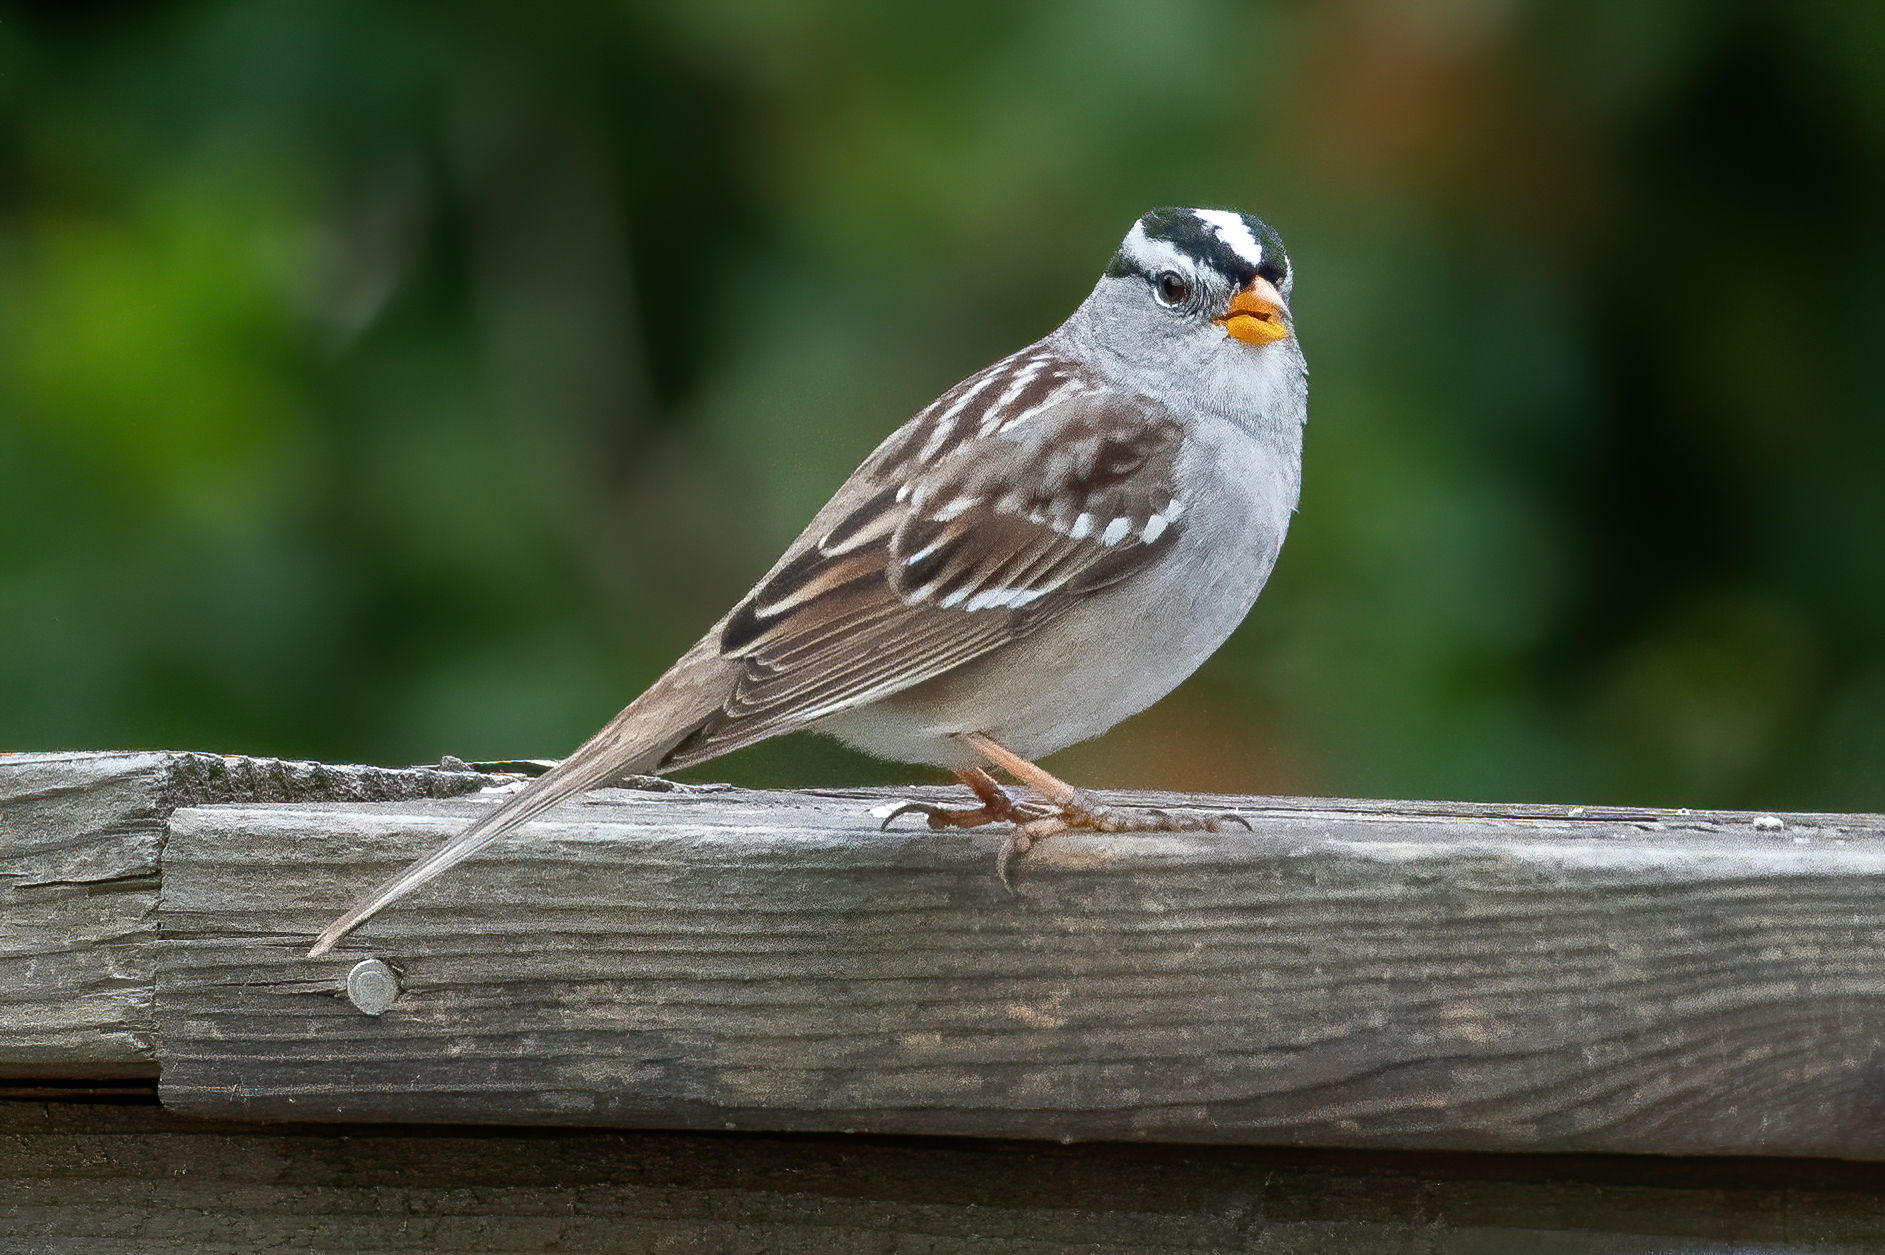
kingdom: Animalia
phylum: Chordata
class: Aves
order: Passeriformes
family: Passerellidae
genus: Zonotrichia
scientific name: Zonotrichia leucophrys
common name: White-crowned sparrow
